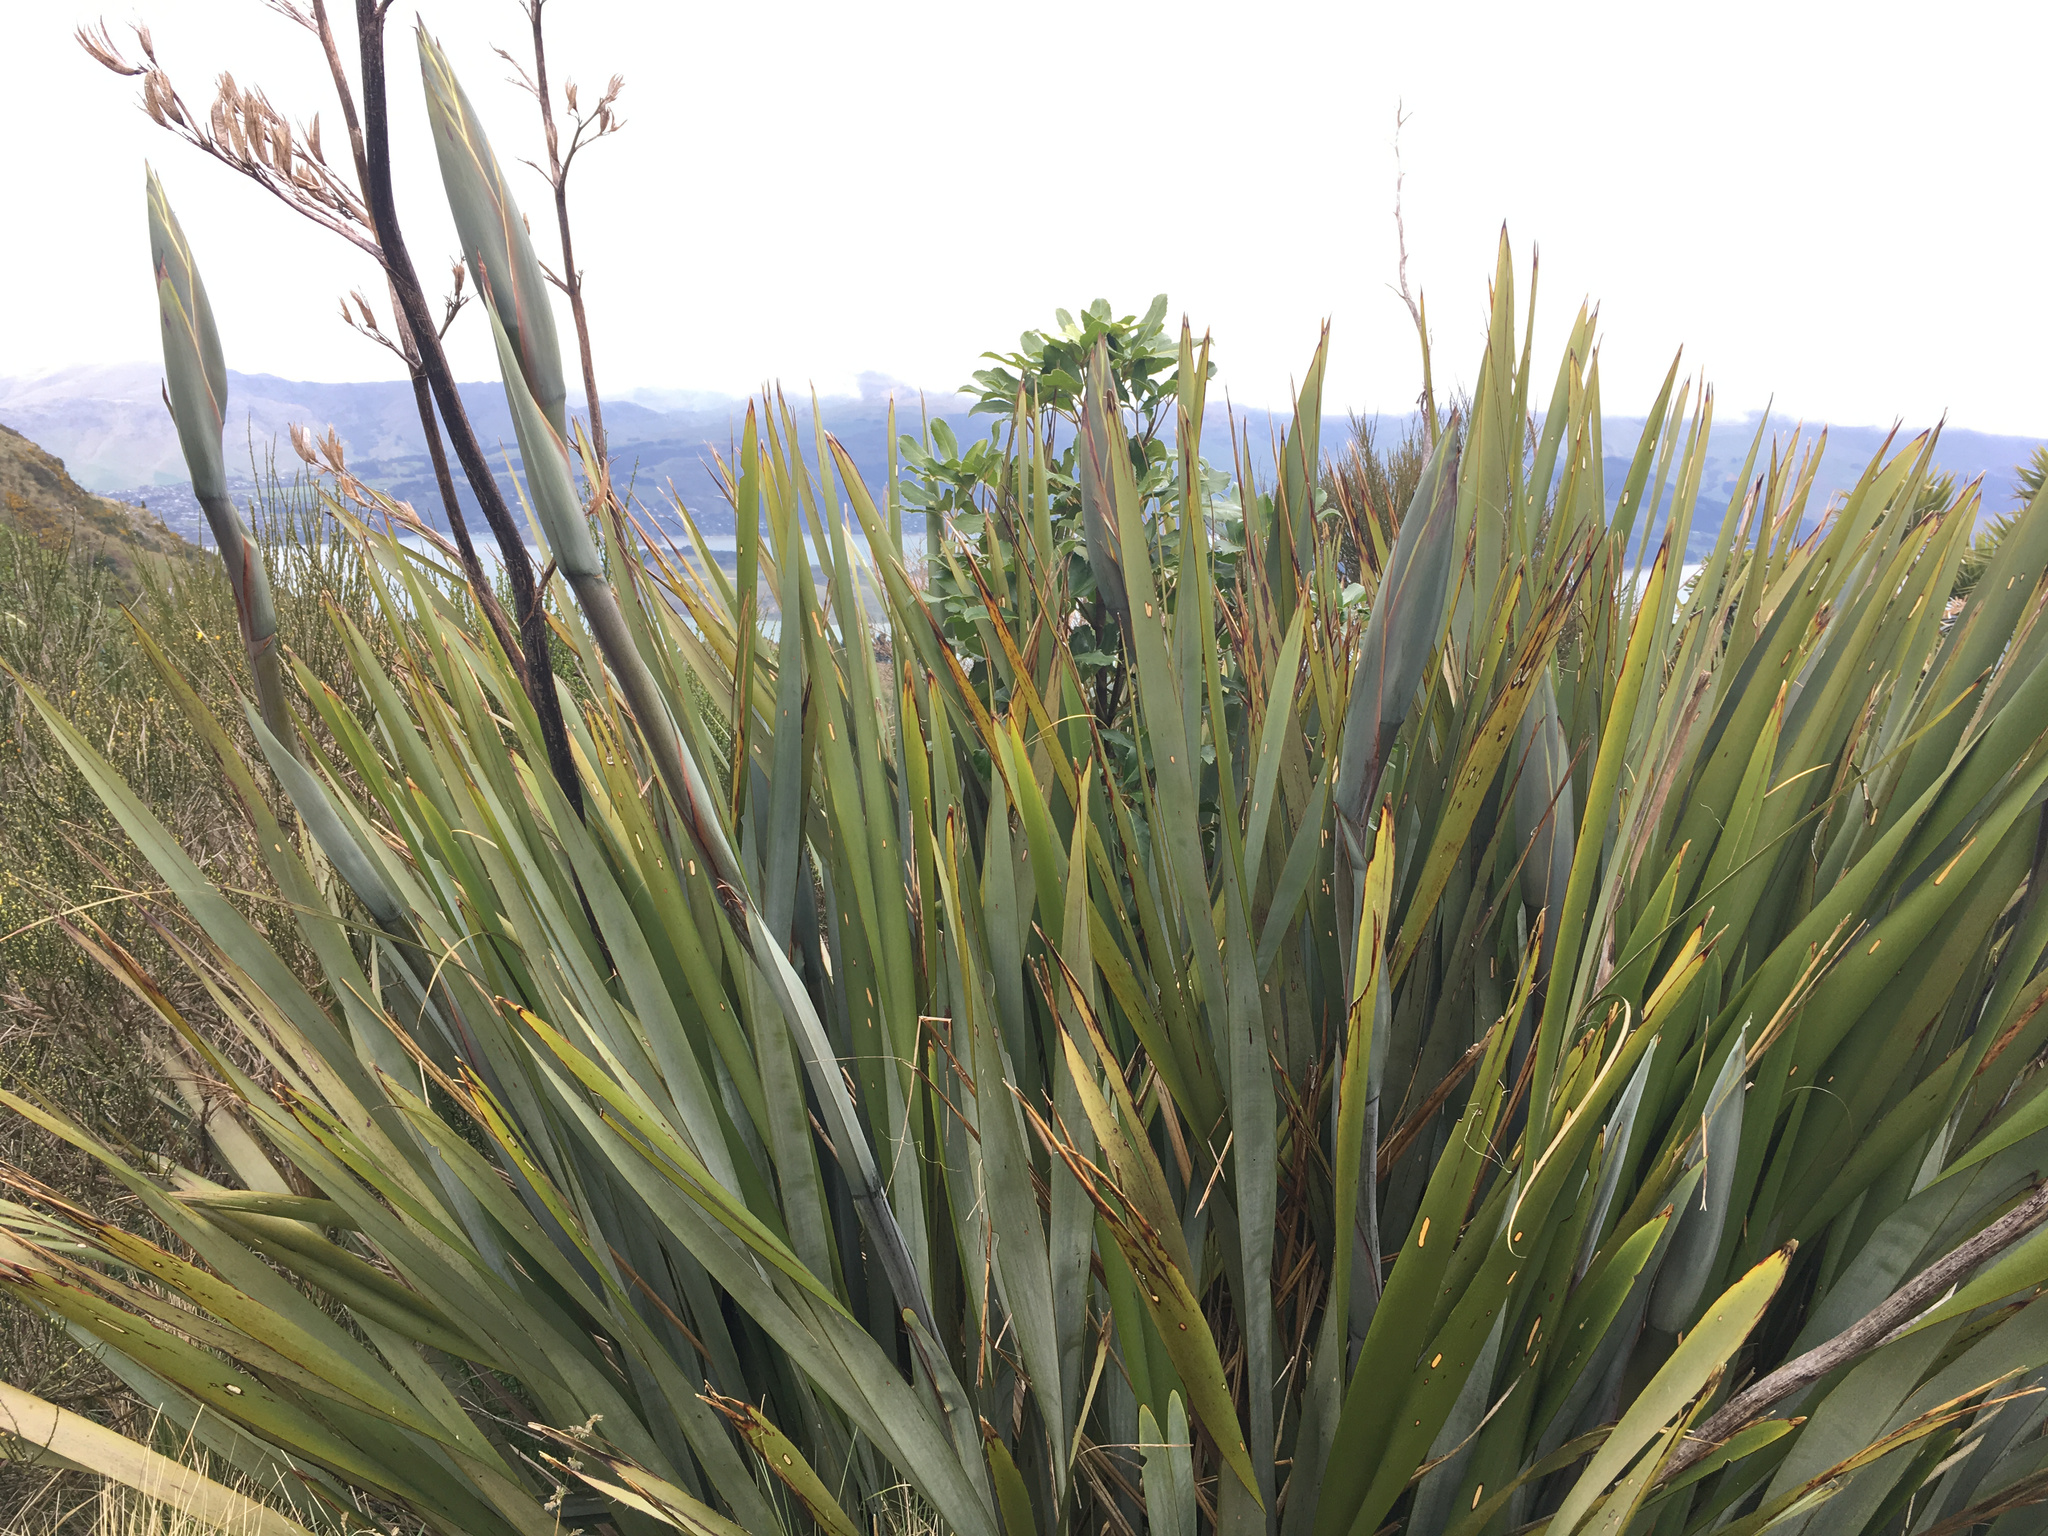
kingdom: Plantae
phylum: Tracheophyta
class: Liliopsida
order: Asparagales
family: Asphodelaceae
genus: Phormium
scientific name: Phormium tenax
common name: New zealand flax
